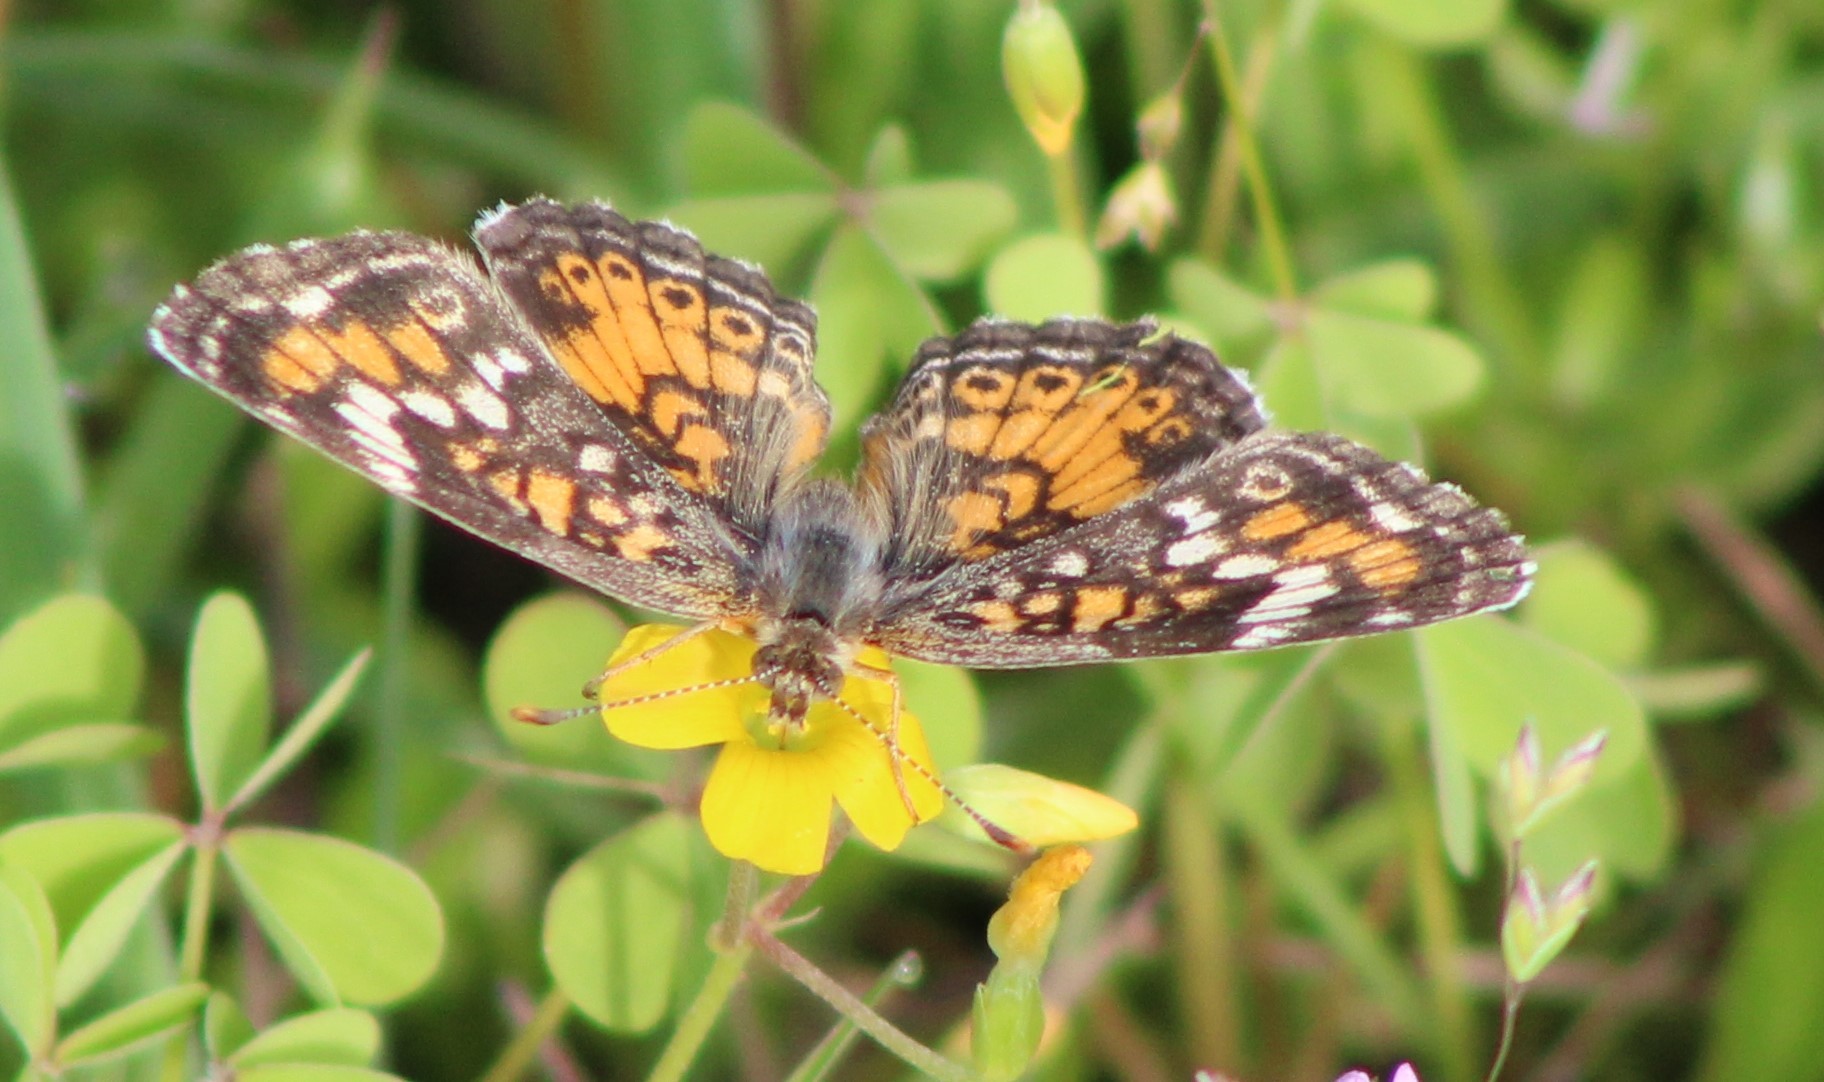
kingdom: Animalia
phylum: Arthropoda
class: Insecta
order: Lepidoptera
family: Nymphalidae
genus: Phyciodes
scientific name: Phyciodes phaon
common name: Phaon crescent
